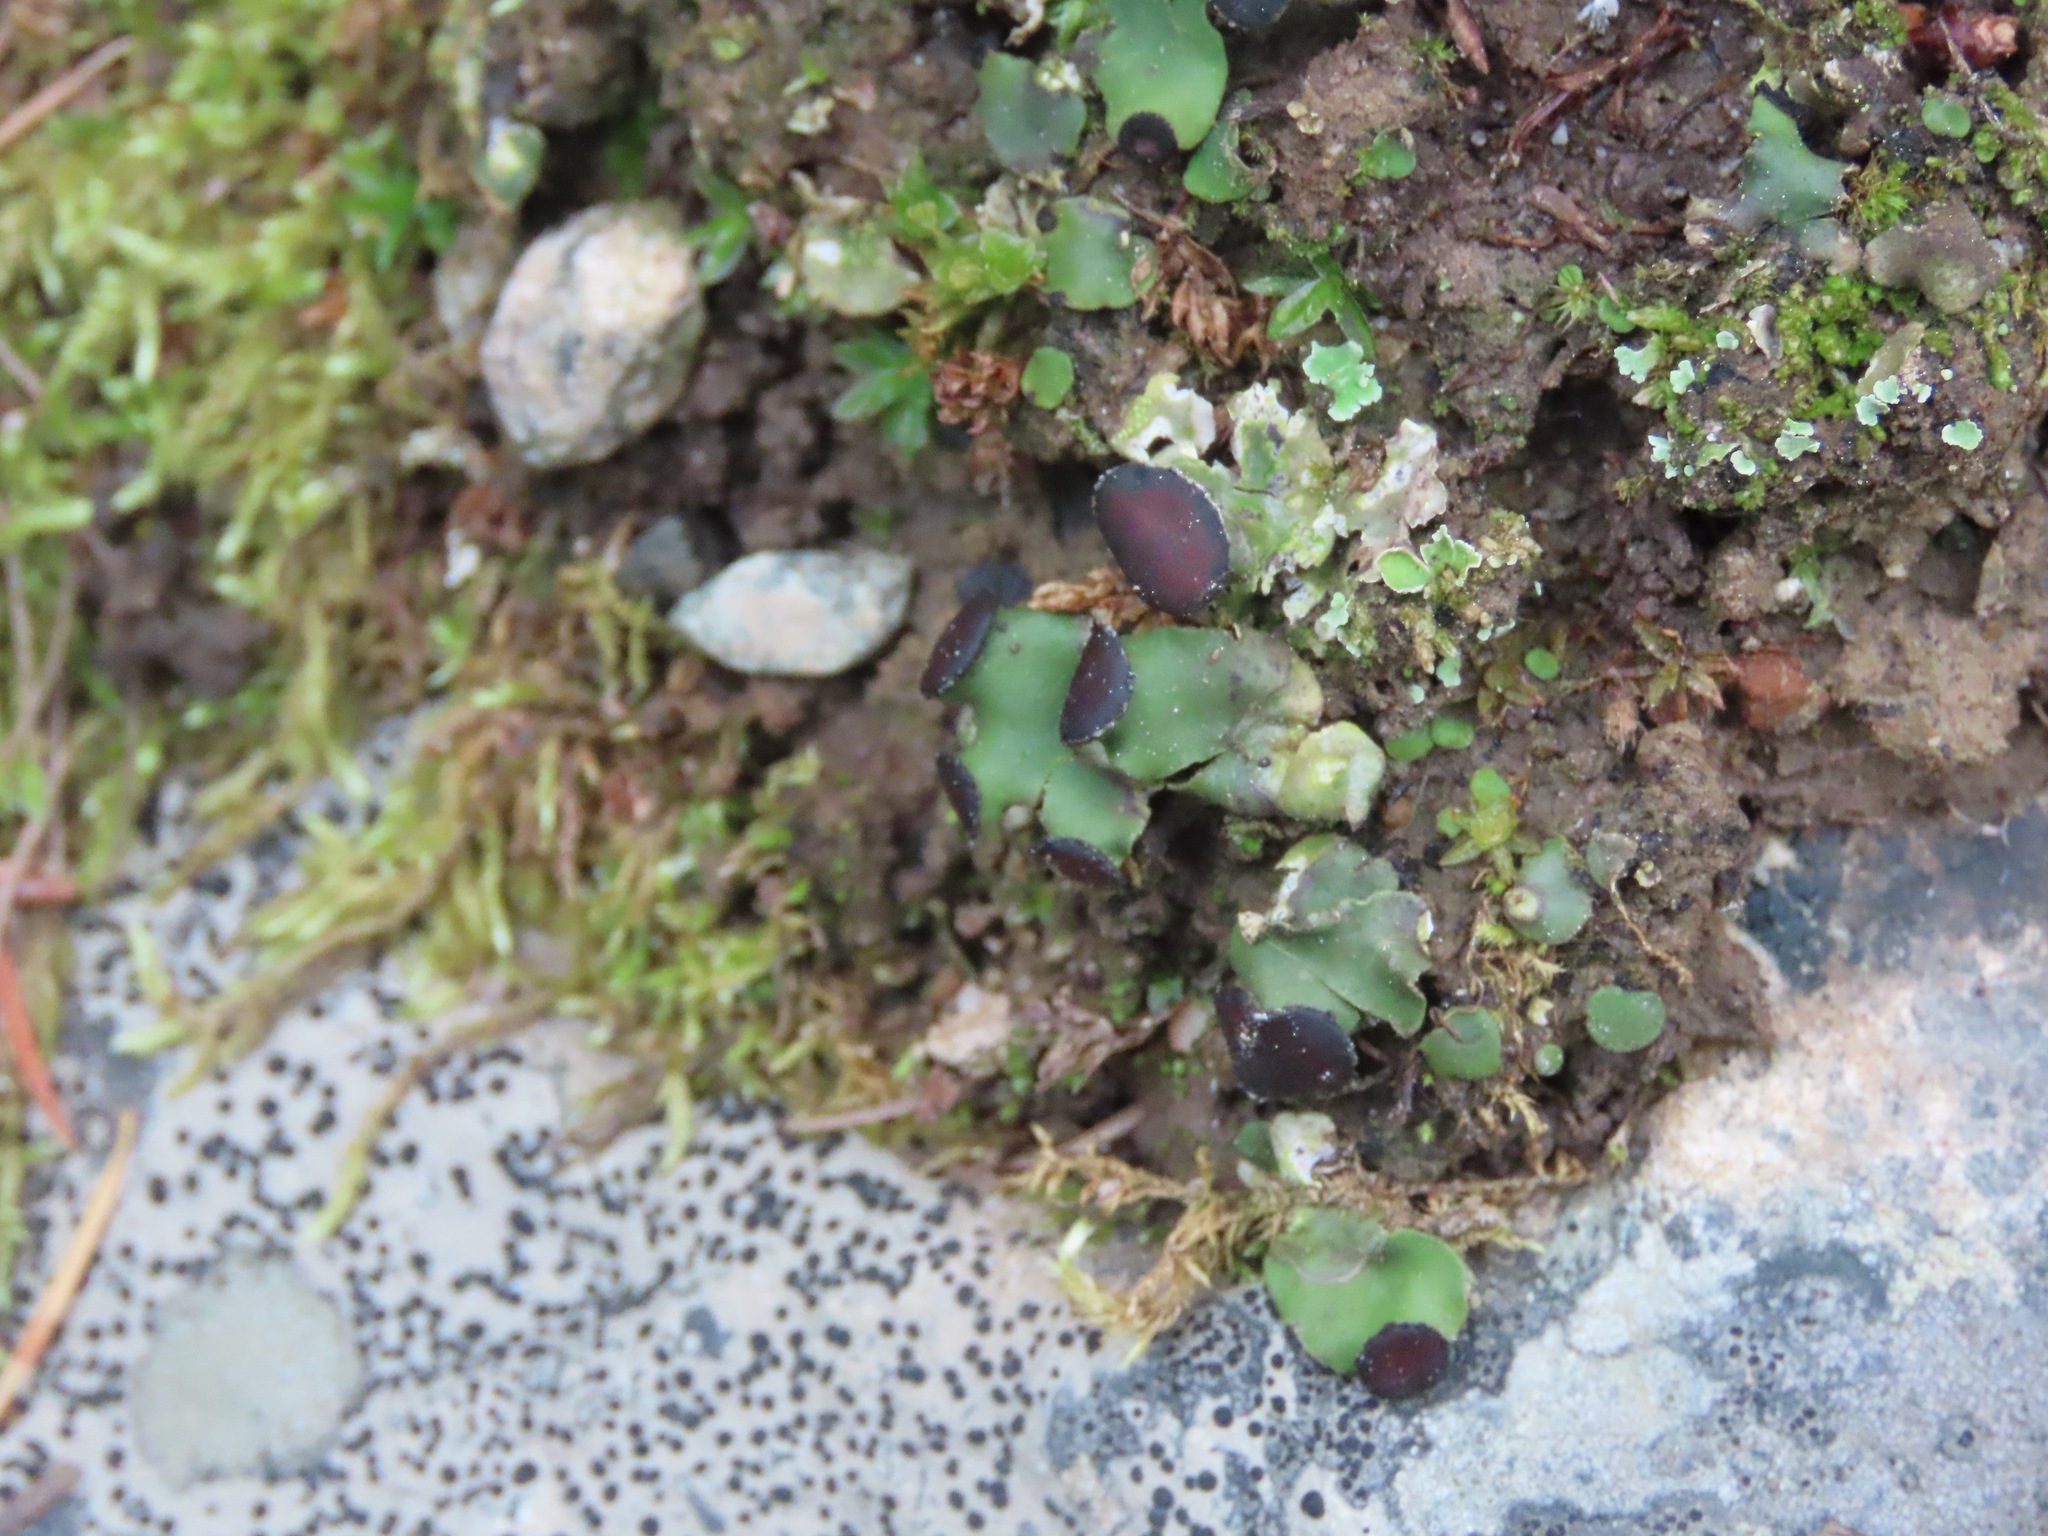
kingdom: Fungi
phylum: Ascomycota
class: Lecanoromycetes
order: Peltigerales
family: Peltigeraceae
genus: Peltigera
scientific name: Peltigera venosa
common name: Pixie gowns lichen
